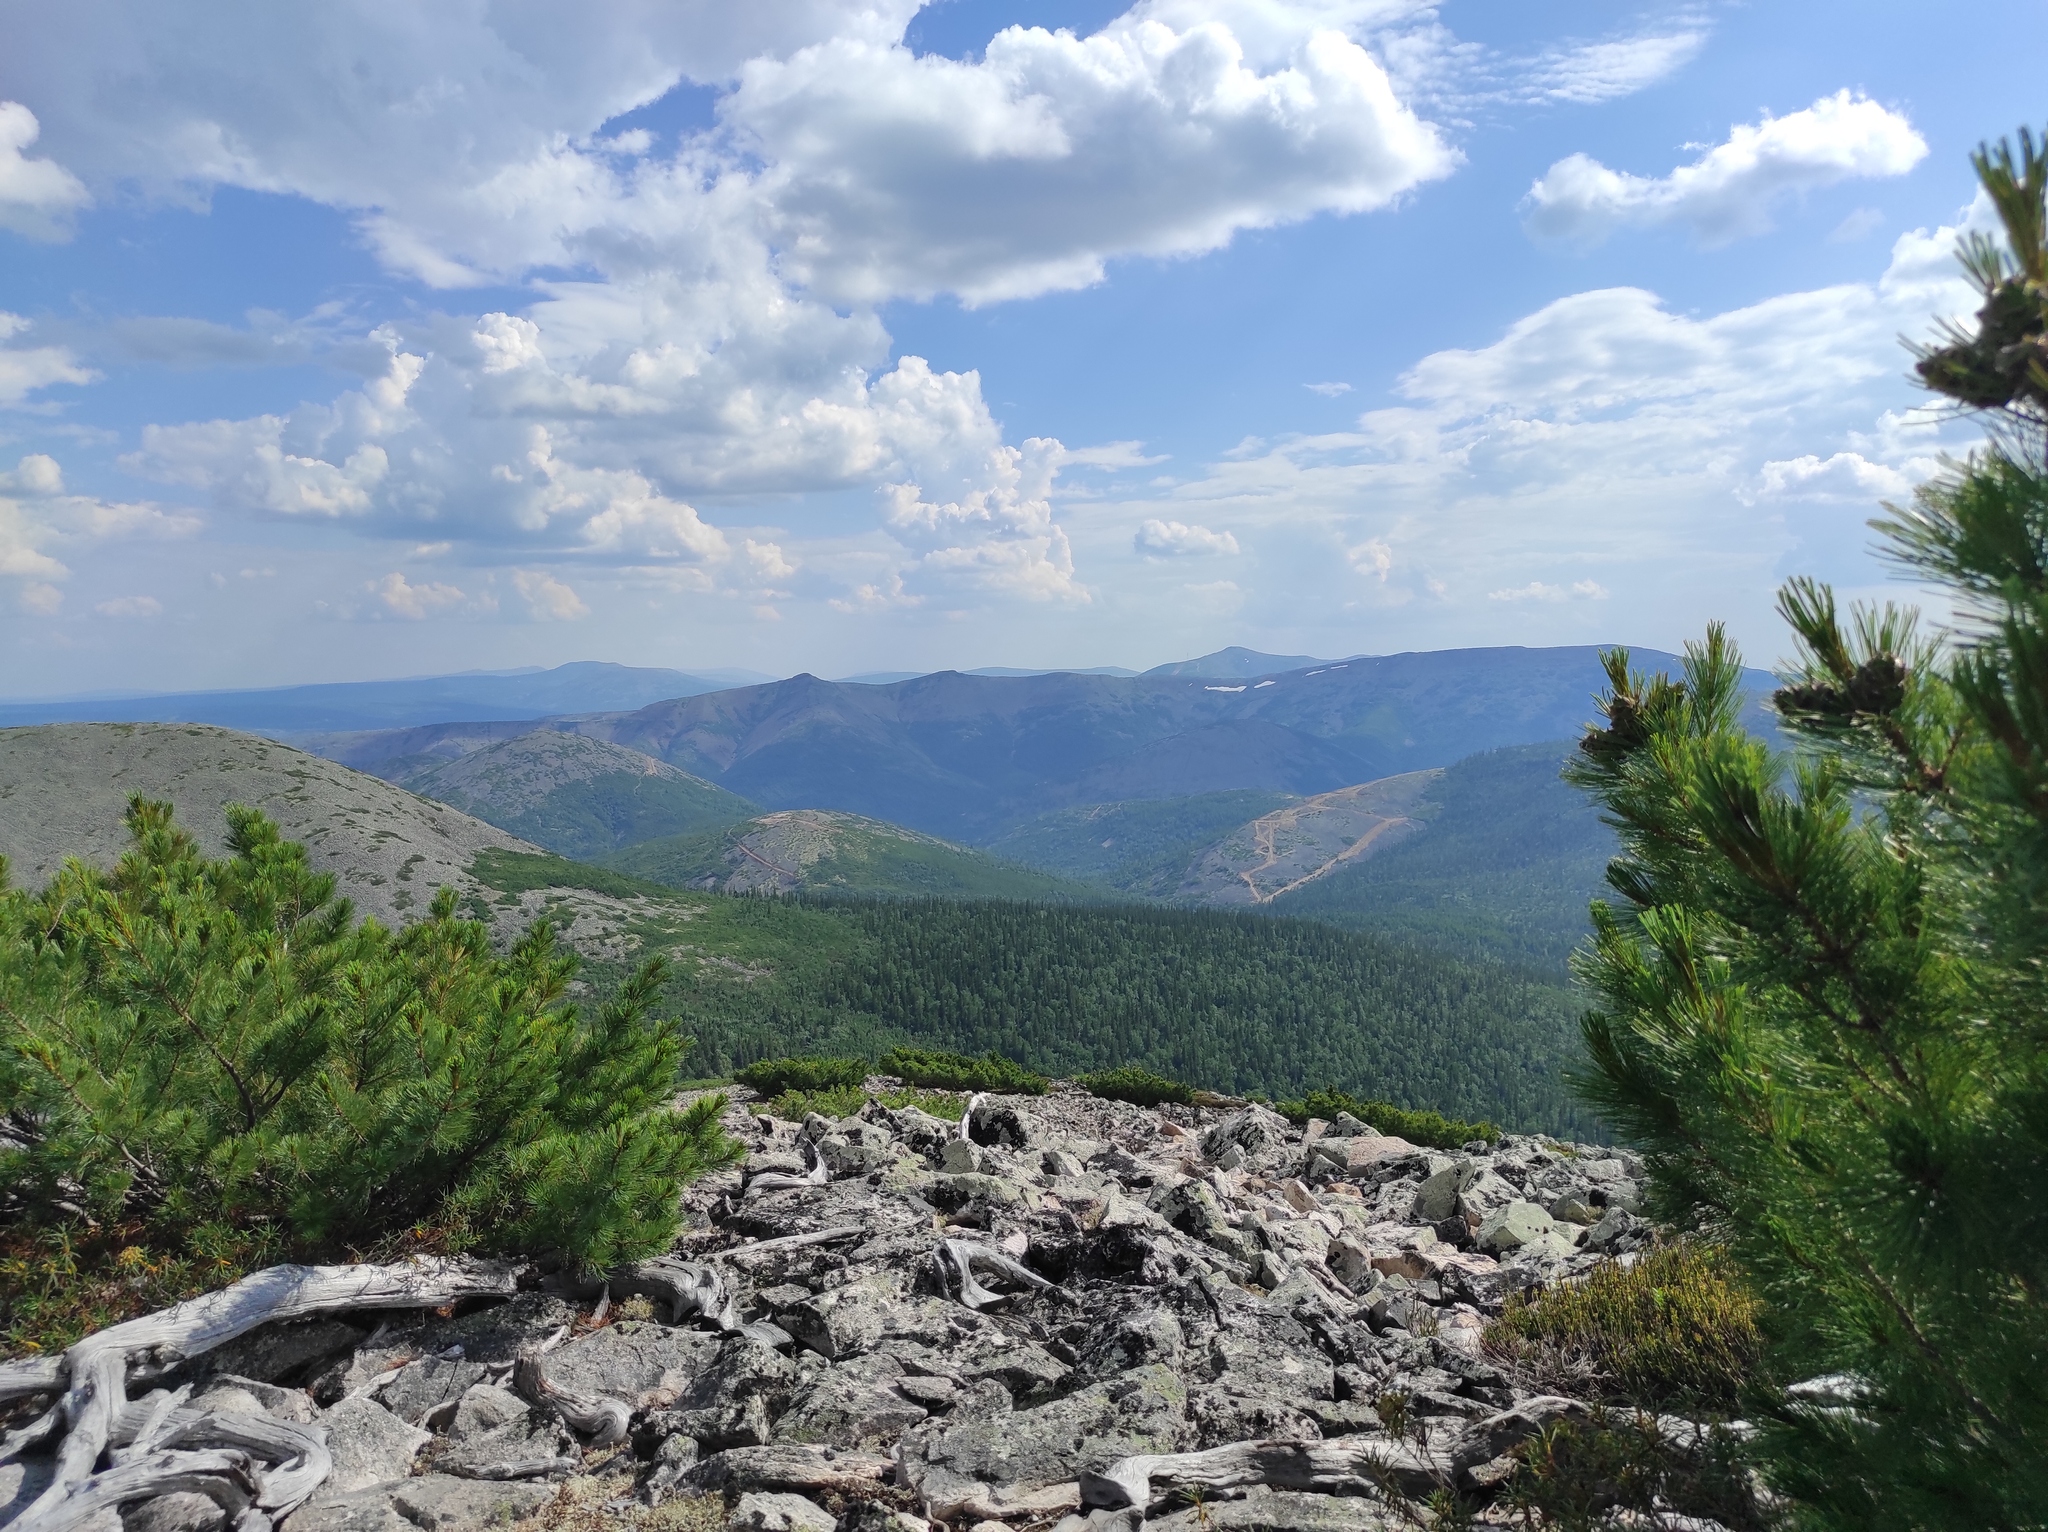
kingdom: Plantae
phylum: Tracheophyta
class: Pinopsida
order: Pinales
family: Pinaceae
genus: Pinus
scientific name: Pinus pumila
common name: Dwarf siberian pine
